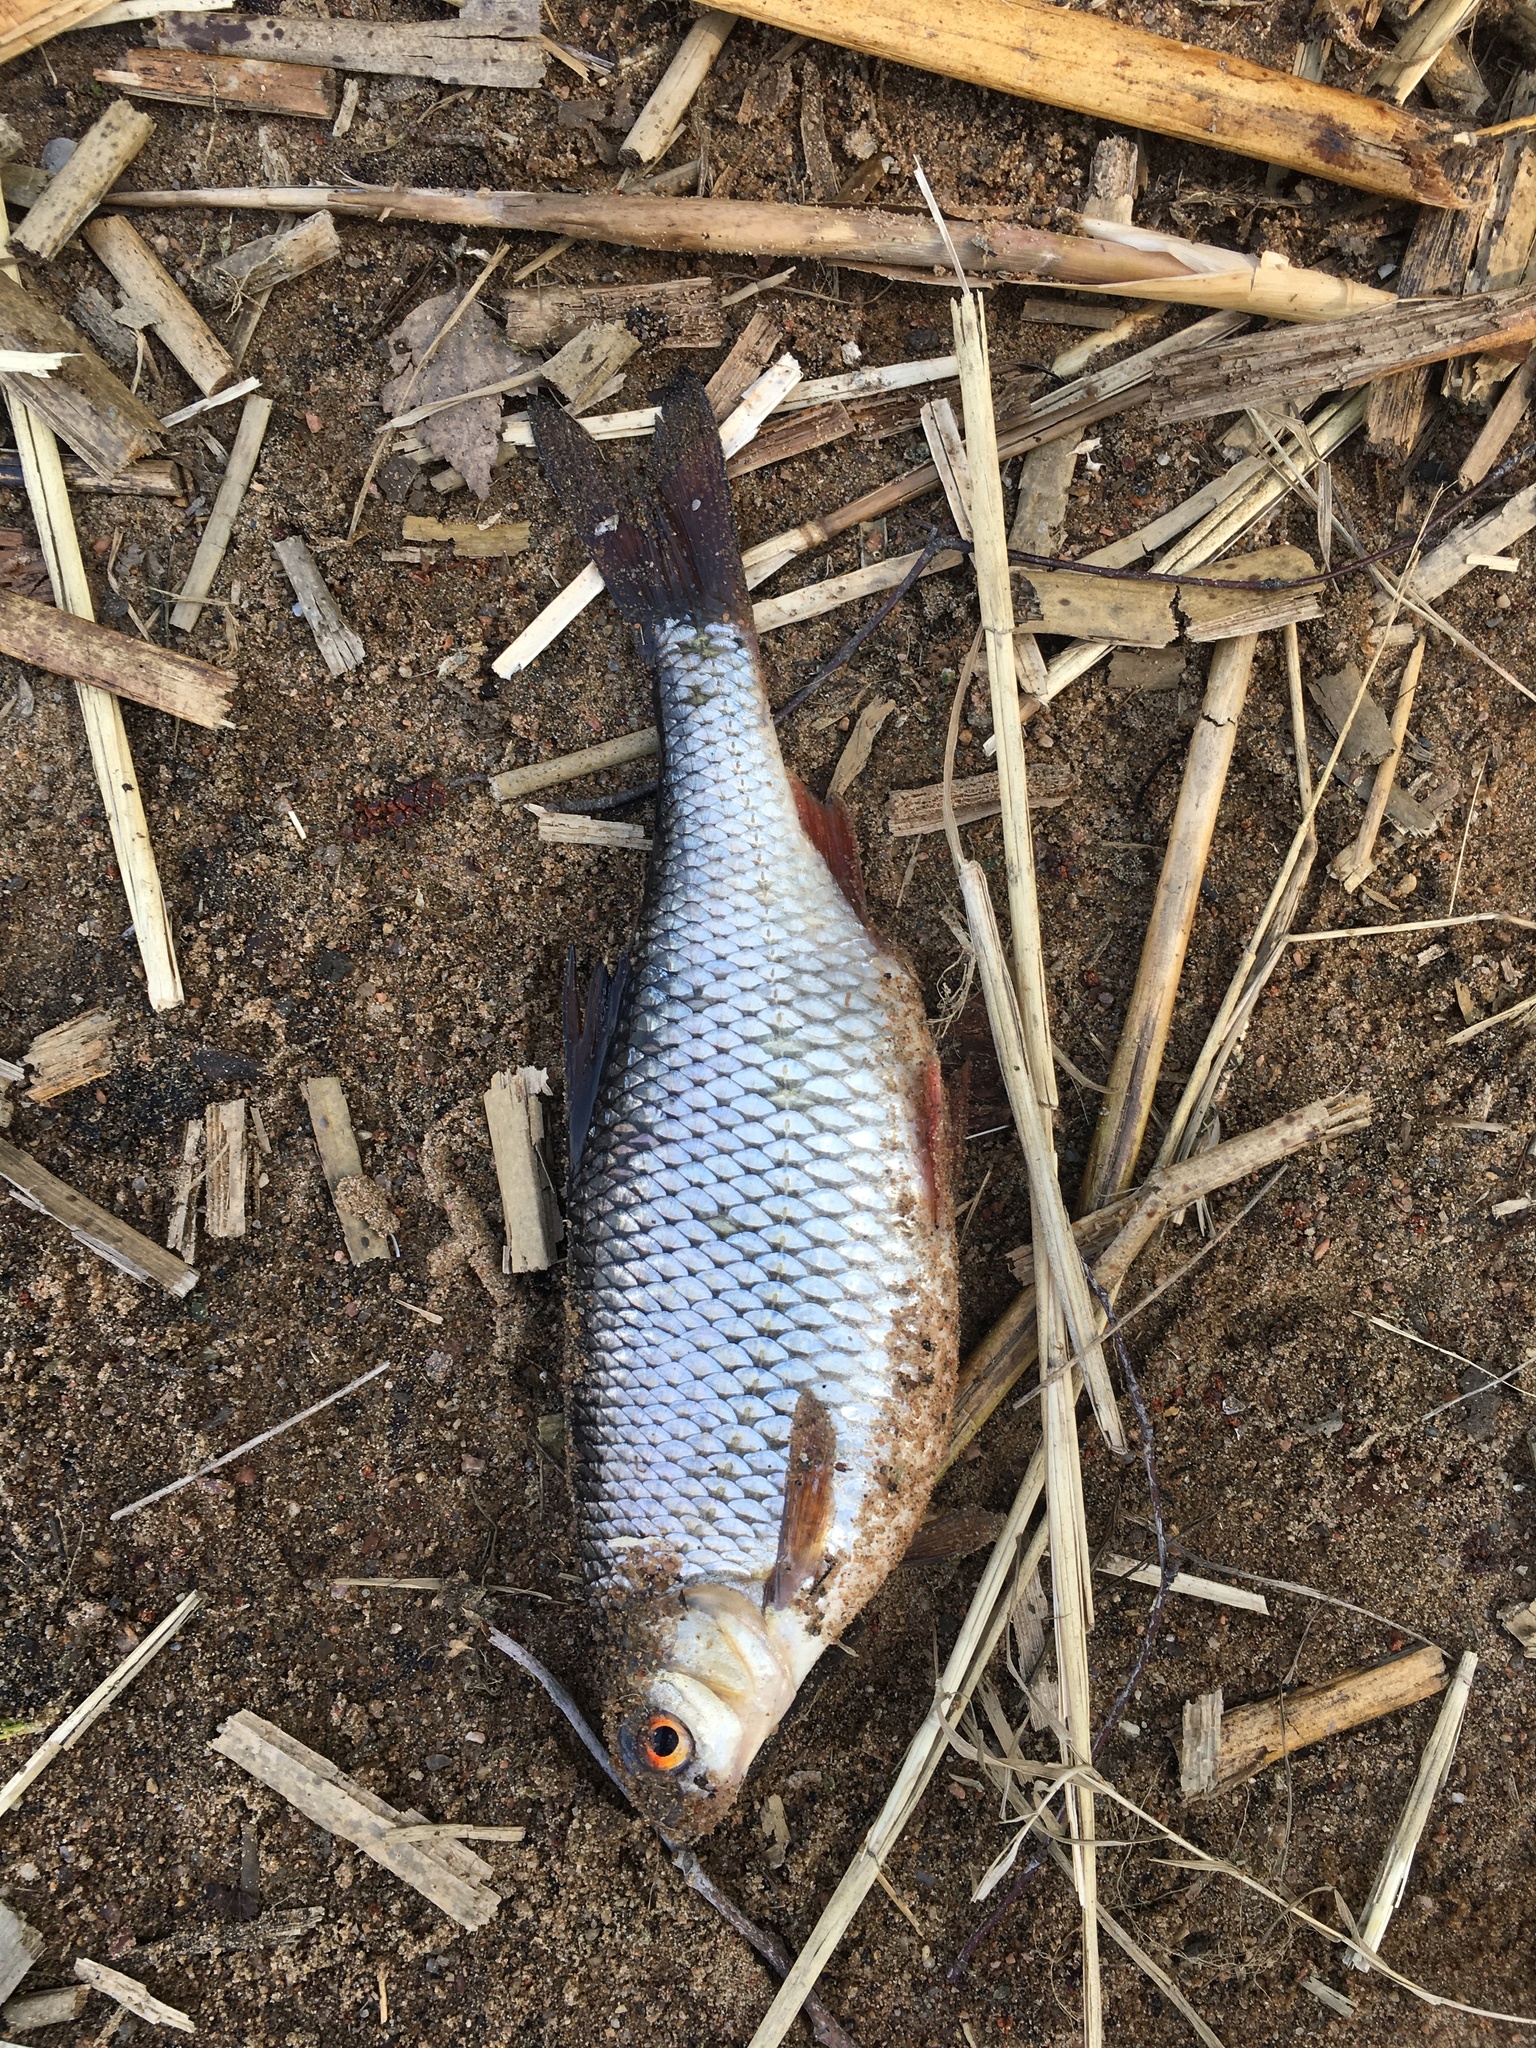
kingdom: Animalia
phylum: Chordata
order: Cypriniformes
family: Cyprinidae
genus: Rutilus
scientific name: Rutilus rutilus
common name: Roach
